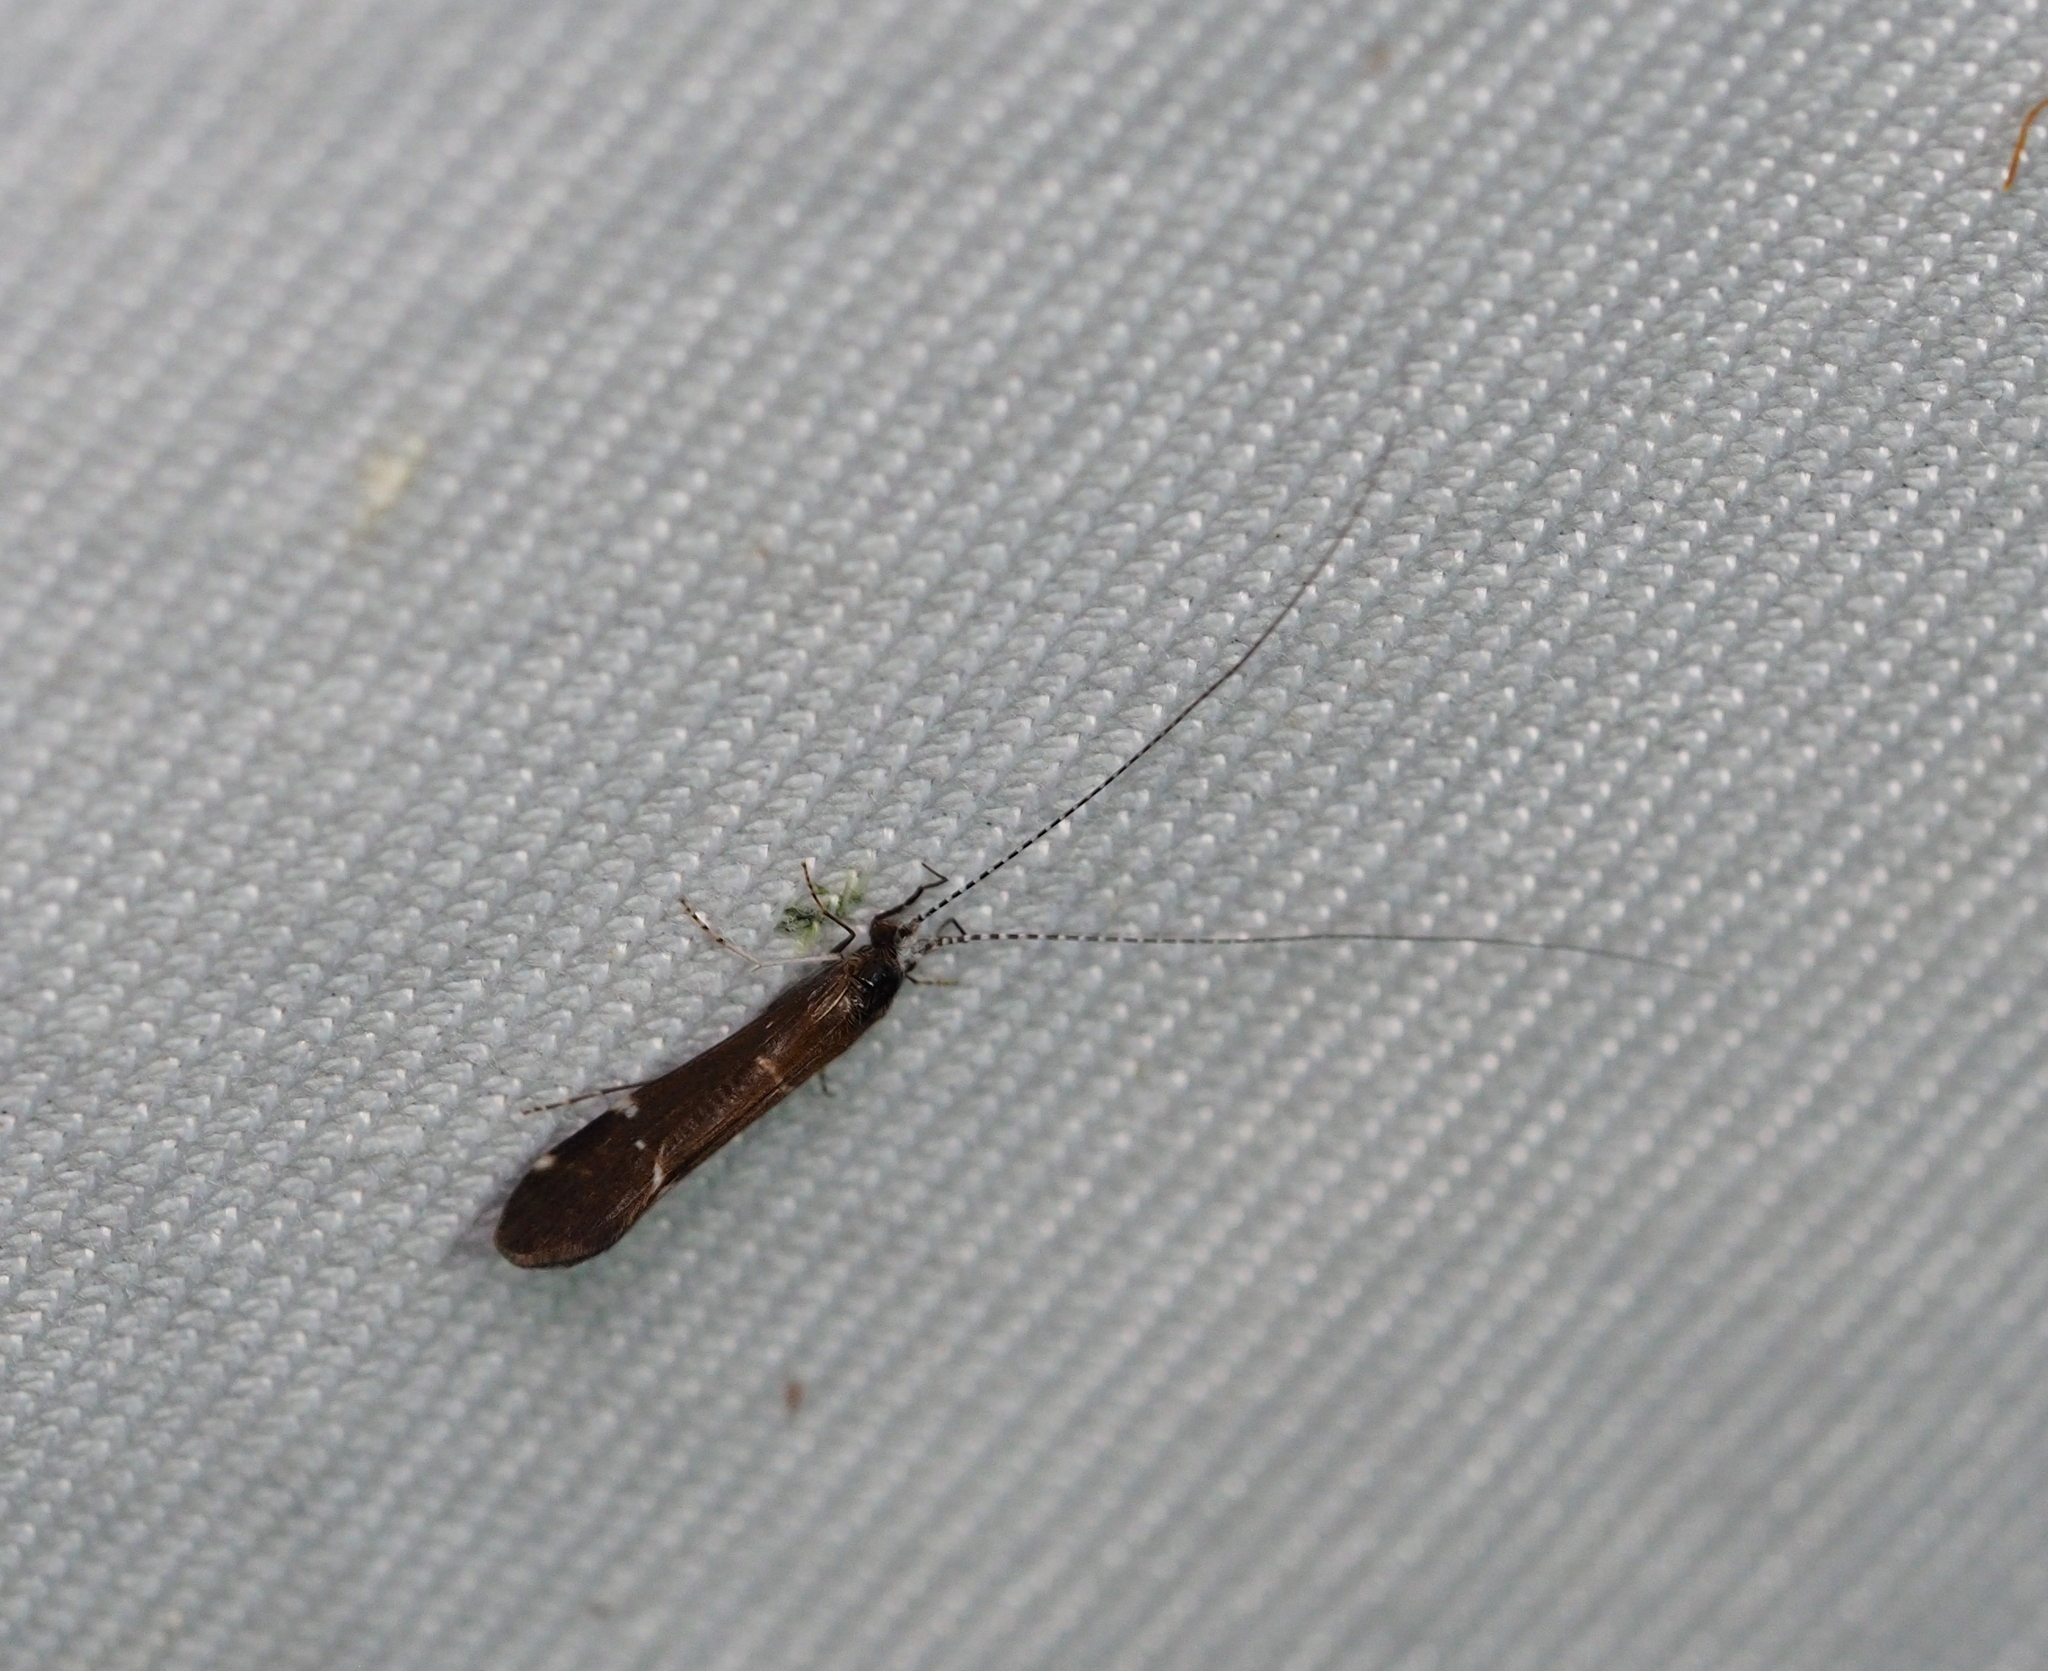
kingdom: Animalia
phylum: Arthropoda
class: Insecta
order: Trichoptera
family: Leptoceridae
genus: Athripsodes
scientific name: Athripsodes albifrons
